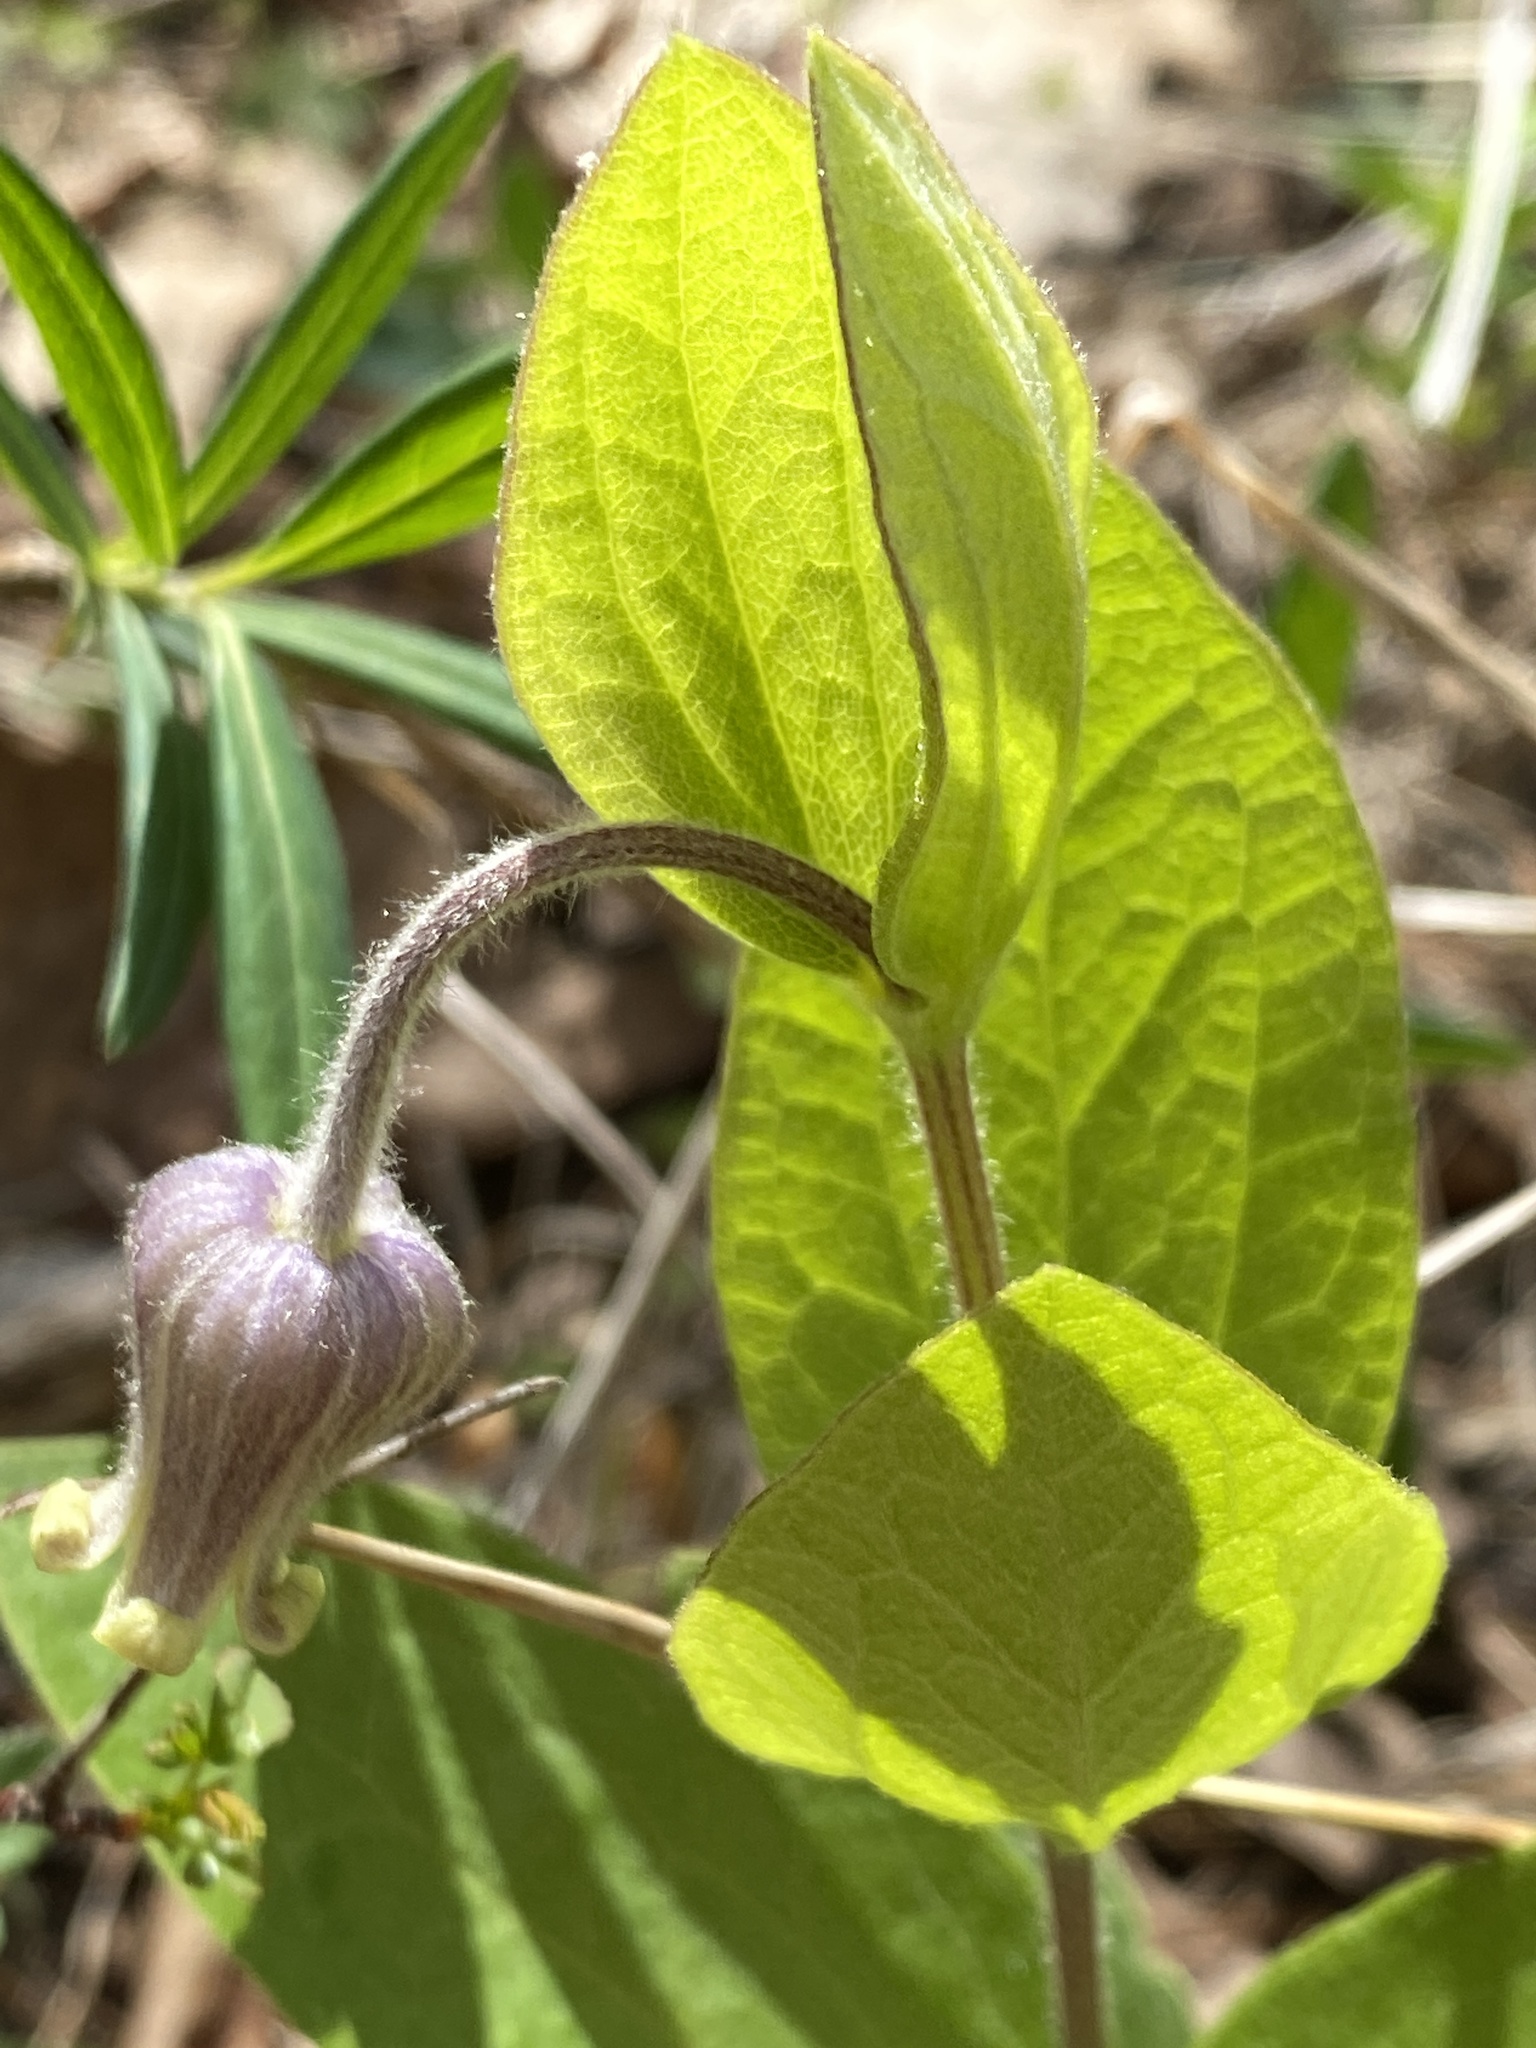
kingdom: Plantae
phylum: Tracheophyta
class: Magnoliopsida
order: Ranunculales
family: Ranunculaceae
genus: Clematis
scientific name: Clematis ochroleuca
